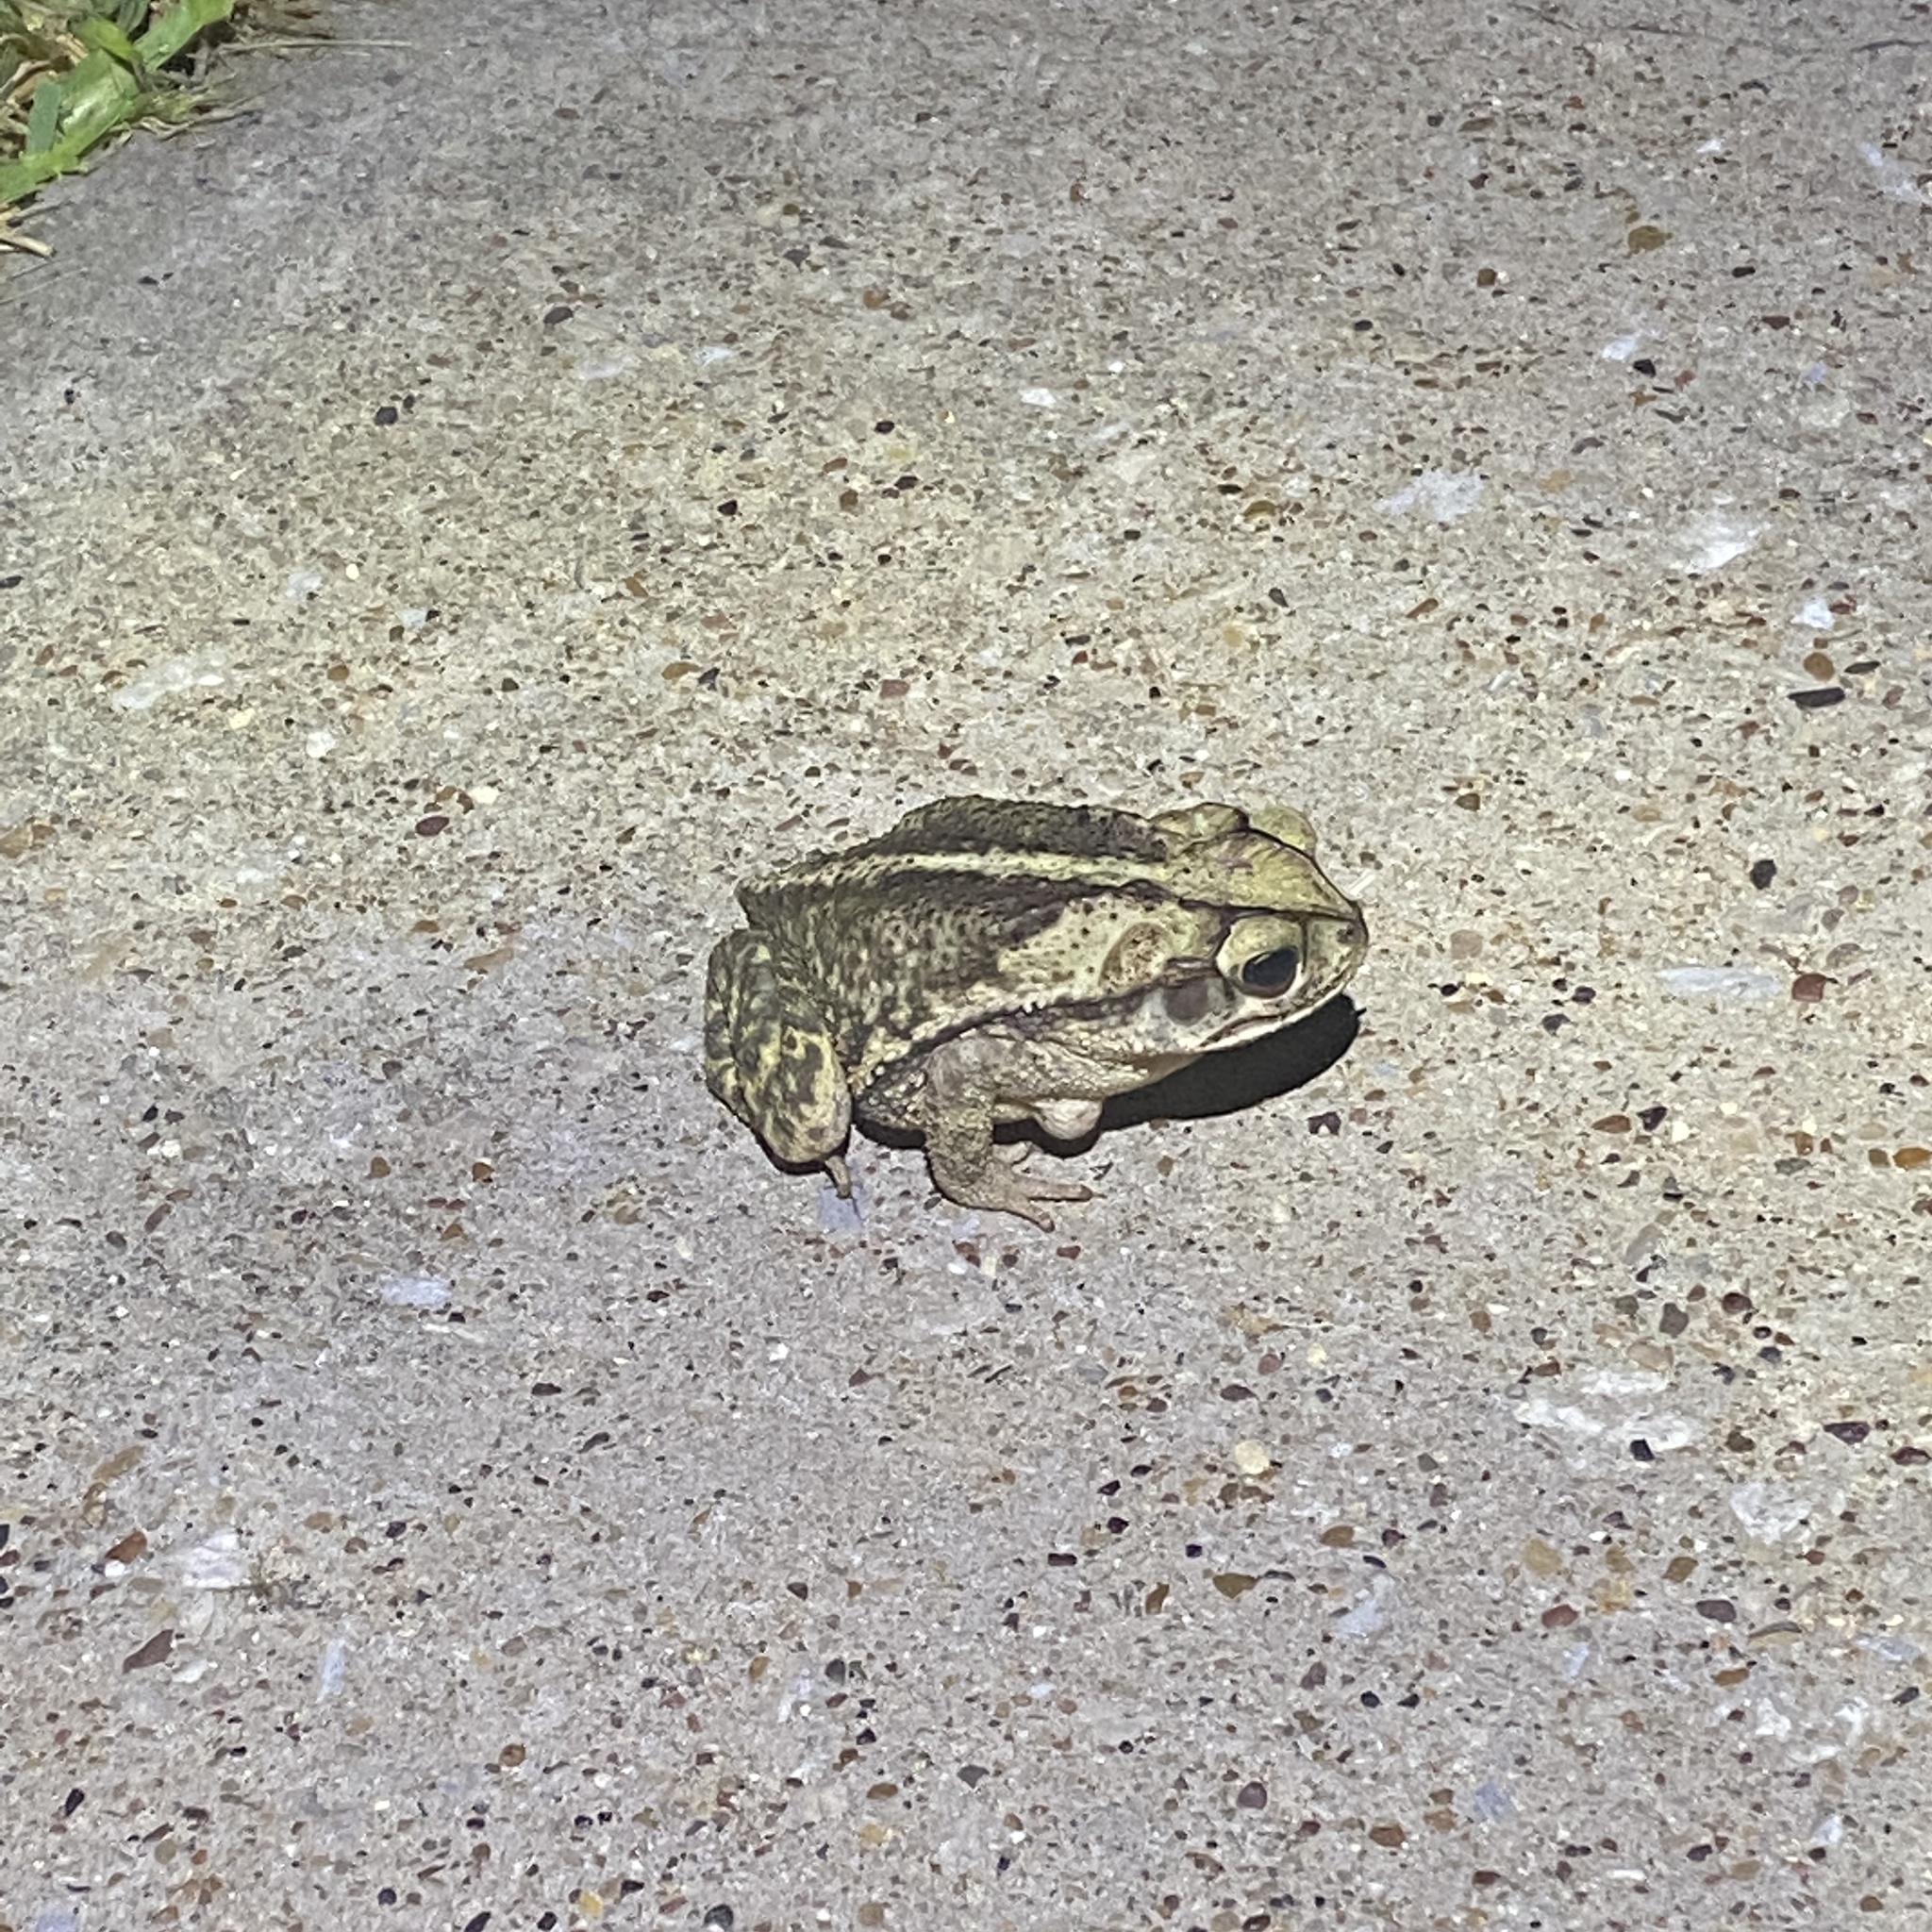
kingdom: Animalia
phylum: Chordata
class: Amphibia
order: Anura
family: Bufonidae
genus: Incilius
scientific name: Incilius nebulifer
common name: Gulf coast toad
